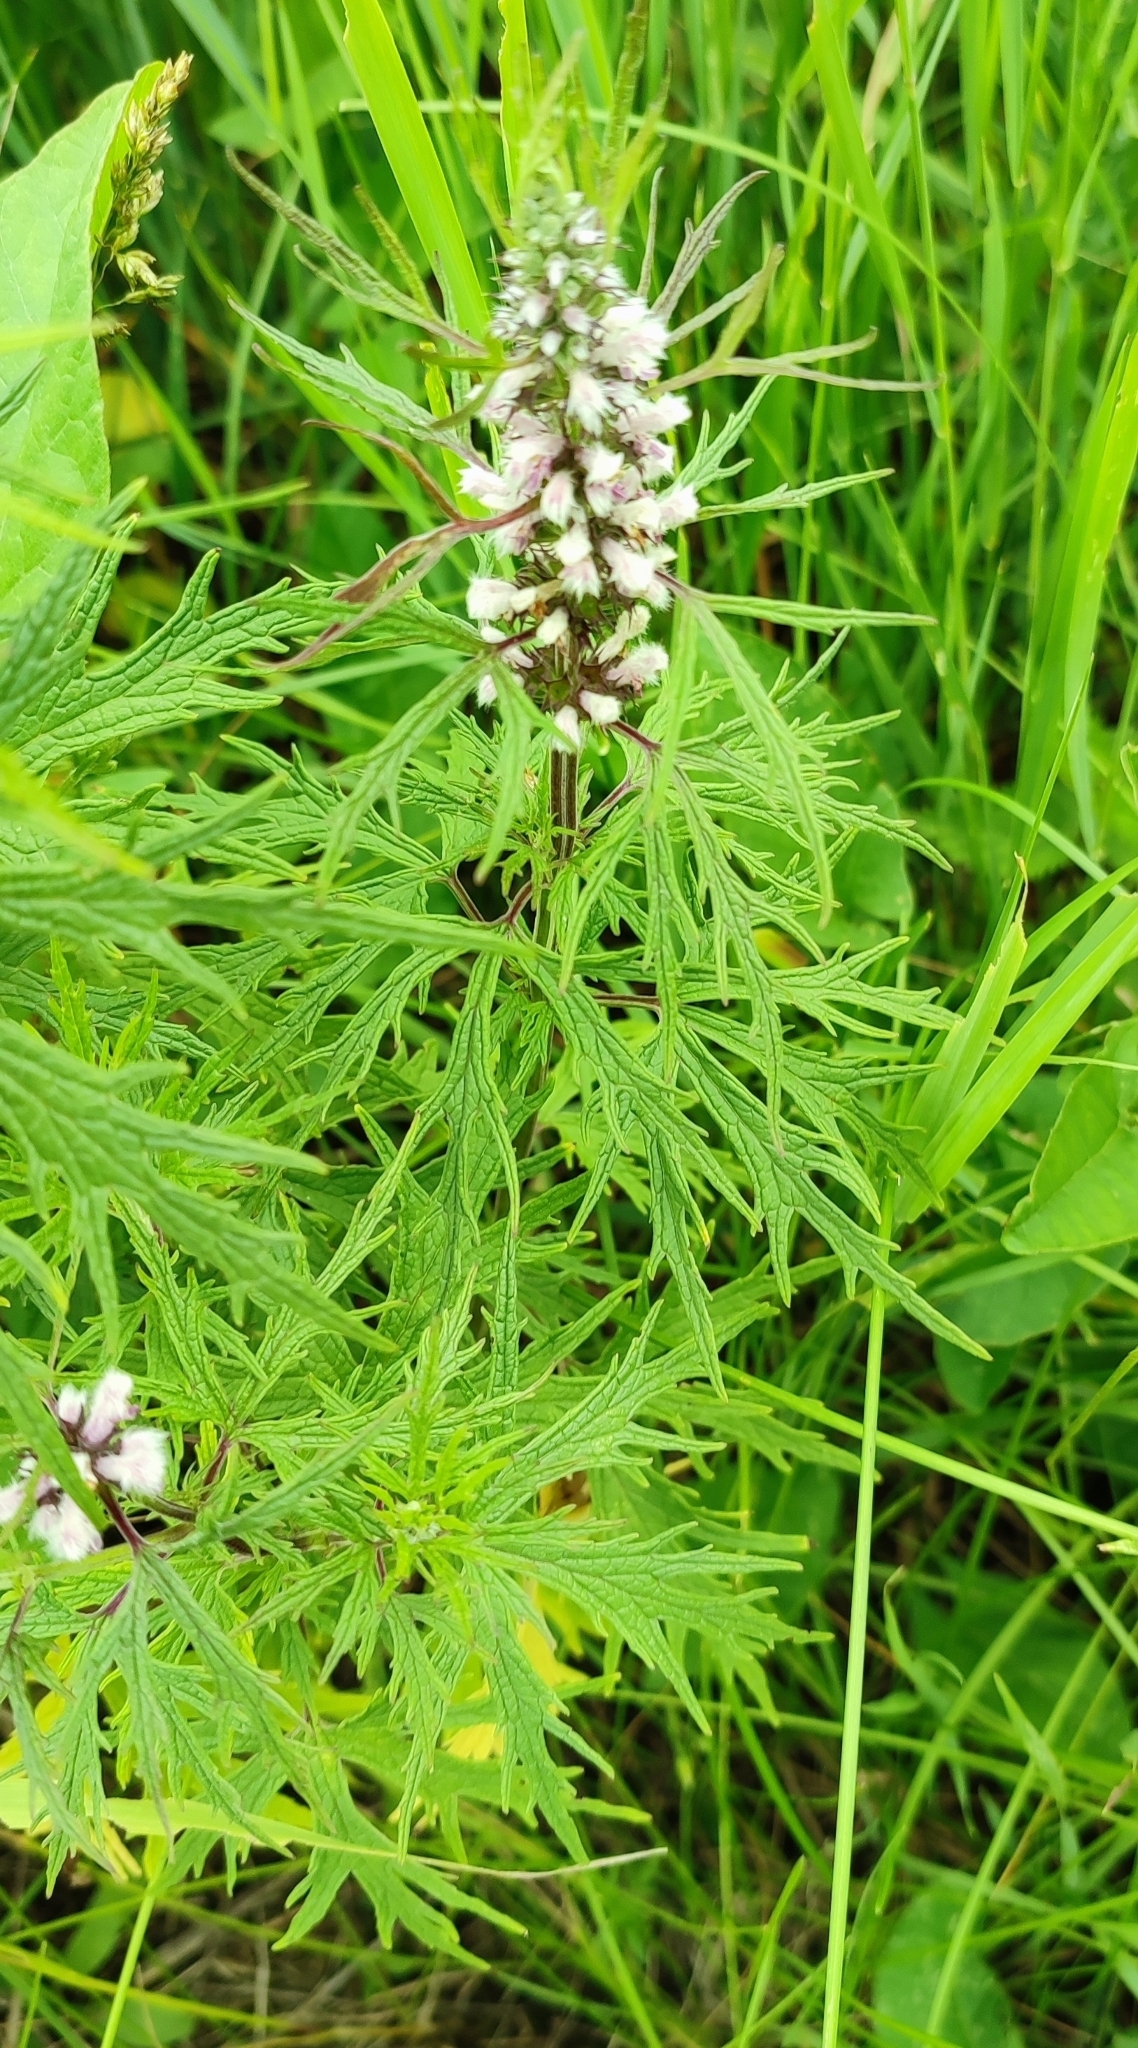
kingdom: Plantae
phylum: Tracheophyta
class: Magnoliopsida
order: Lamiales
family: Lamiaceae
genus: Leonurus
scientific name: Leonurus glaucescens
